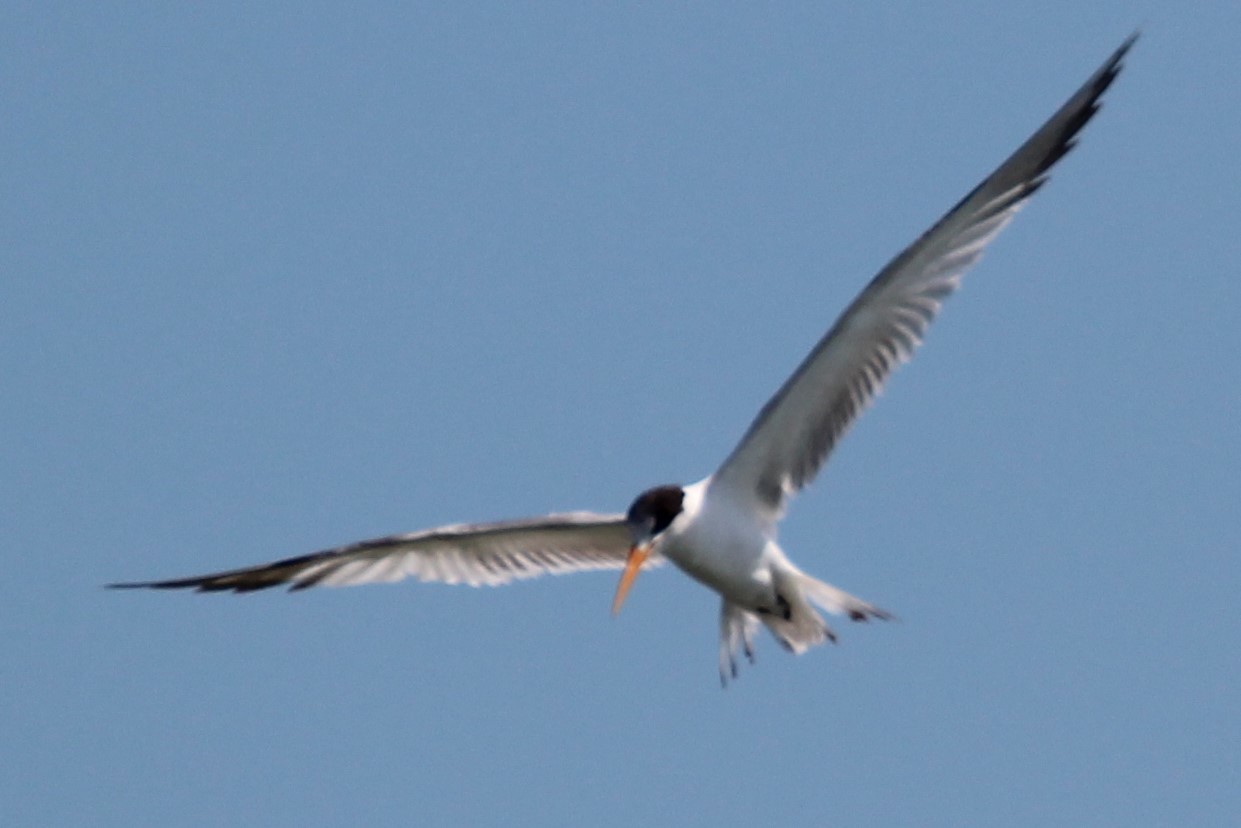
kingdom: Animalia
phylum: Chordata
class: Aves
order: Charadriiformes
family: Laridae
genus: Thalasseus
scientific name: Thalasseus elegans
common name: Elegant tern
